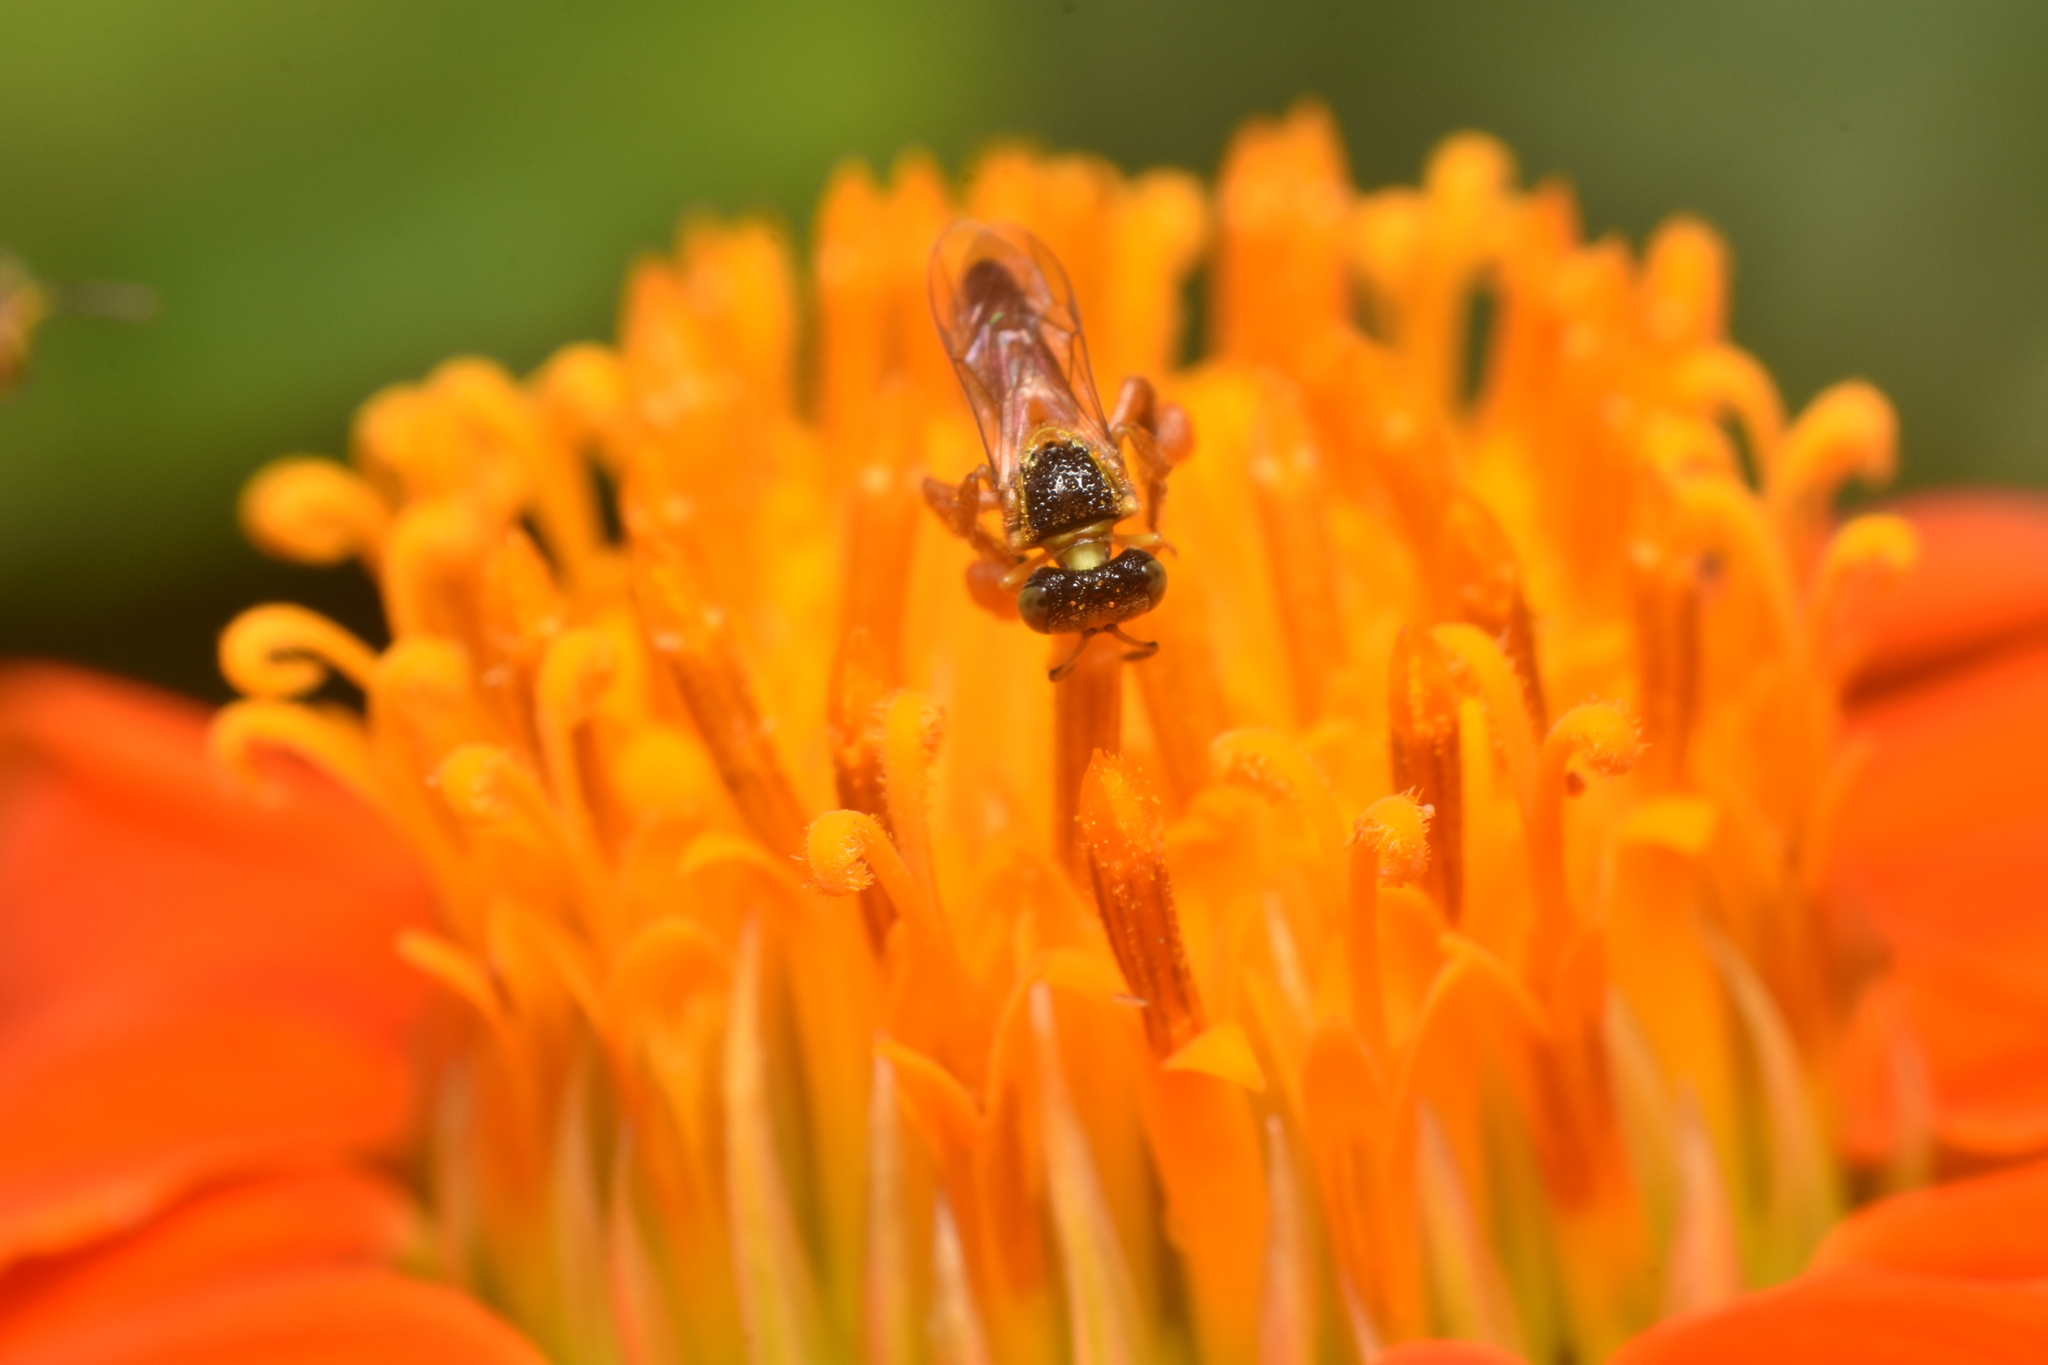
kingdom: Animalia
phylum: Arthropoda
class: Insecta
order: Hymenoptera
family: Apidae
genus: Tetragonisca
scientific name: Tetragonisca angustula
